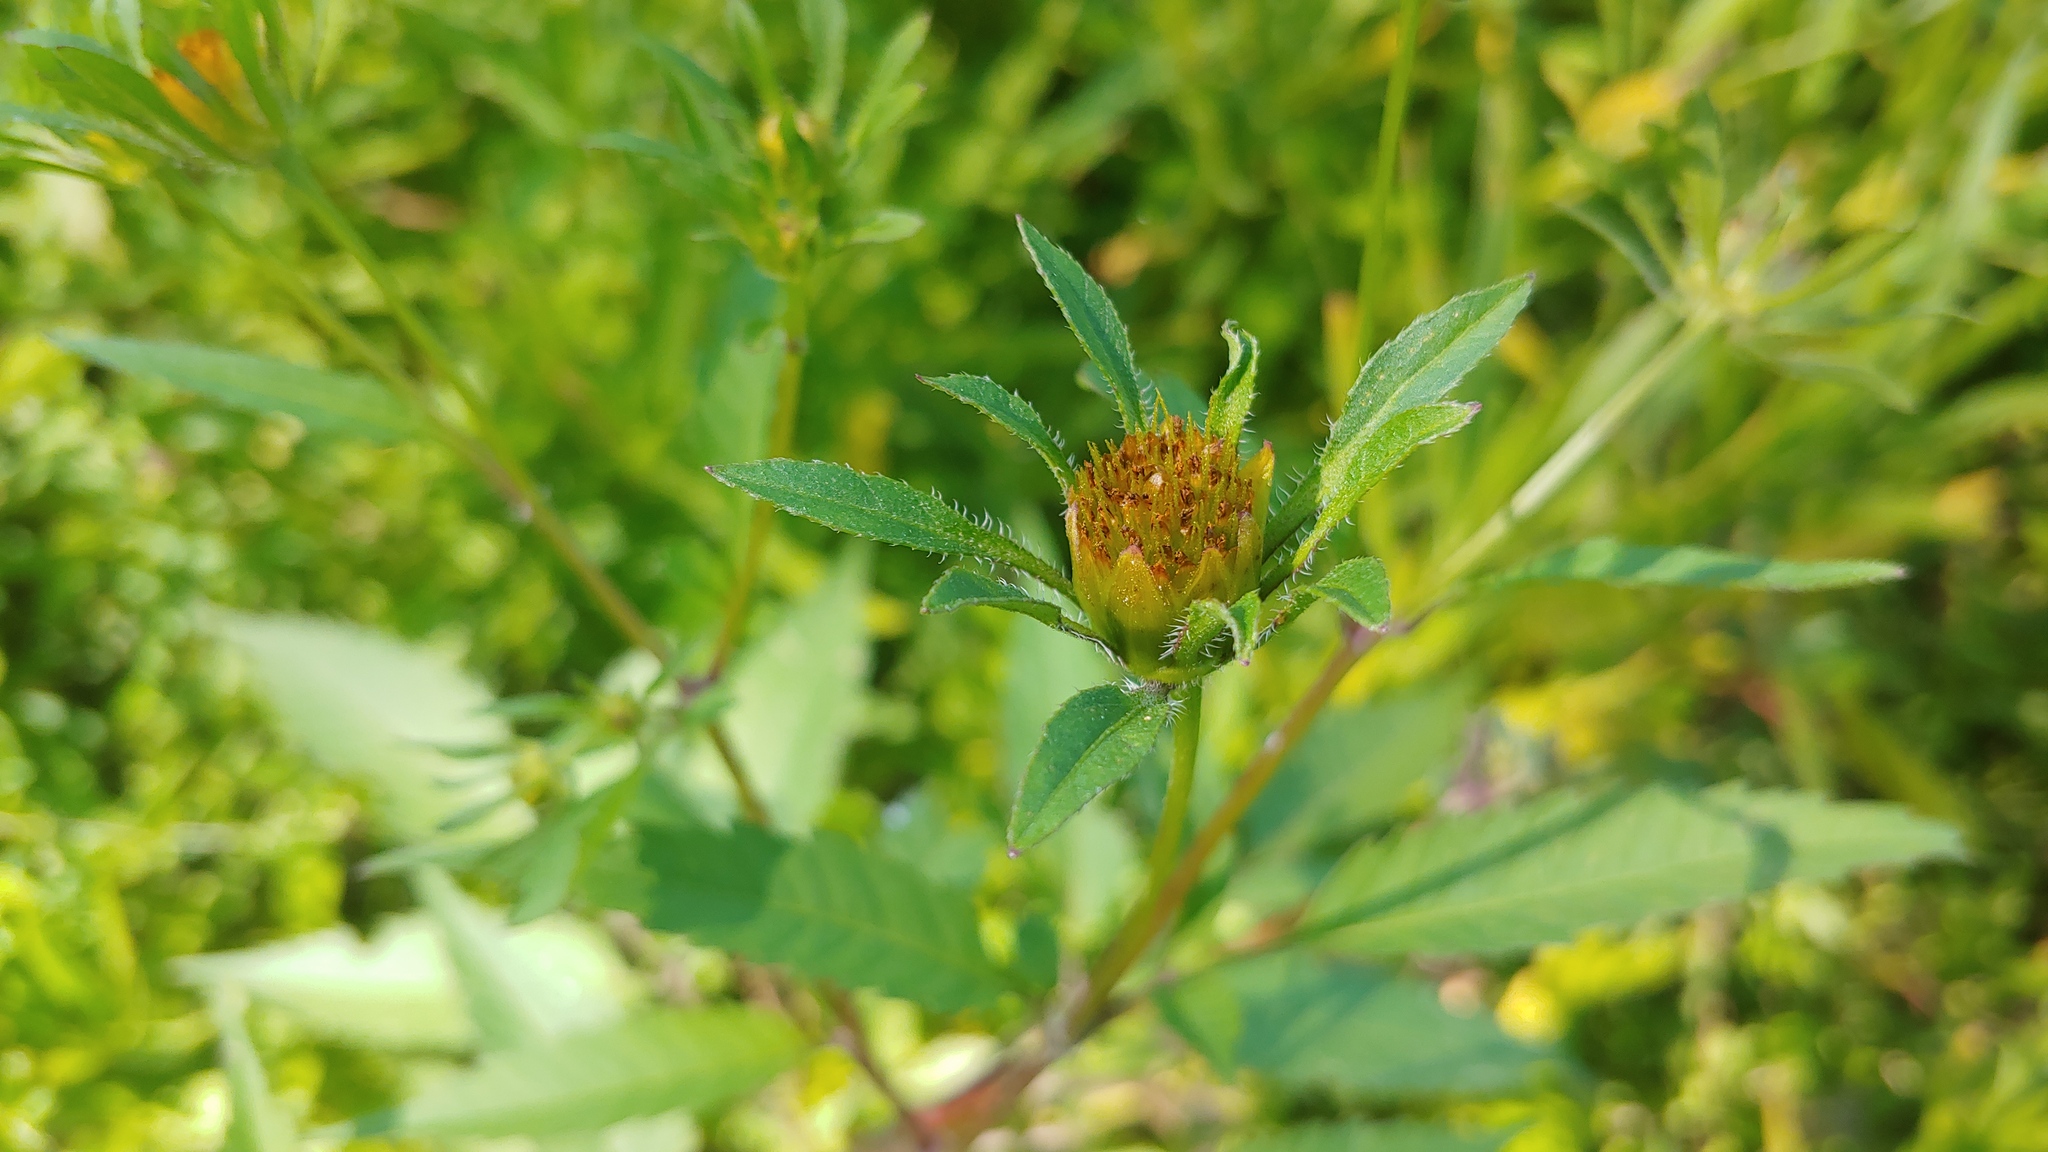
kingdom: Plantae
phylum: Tracheophyta
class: Magnoliopsida
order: Asterales
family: Asteraceae
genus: Bidens
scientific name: Bidens frondosa
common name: Beggarticks
